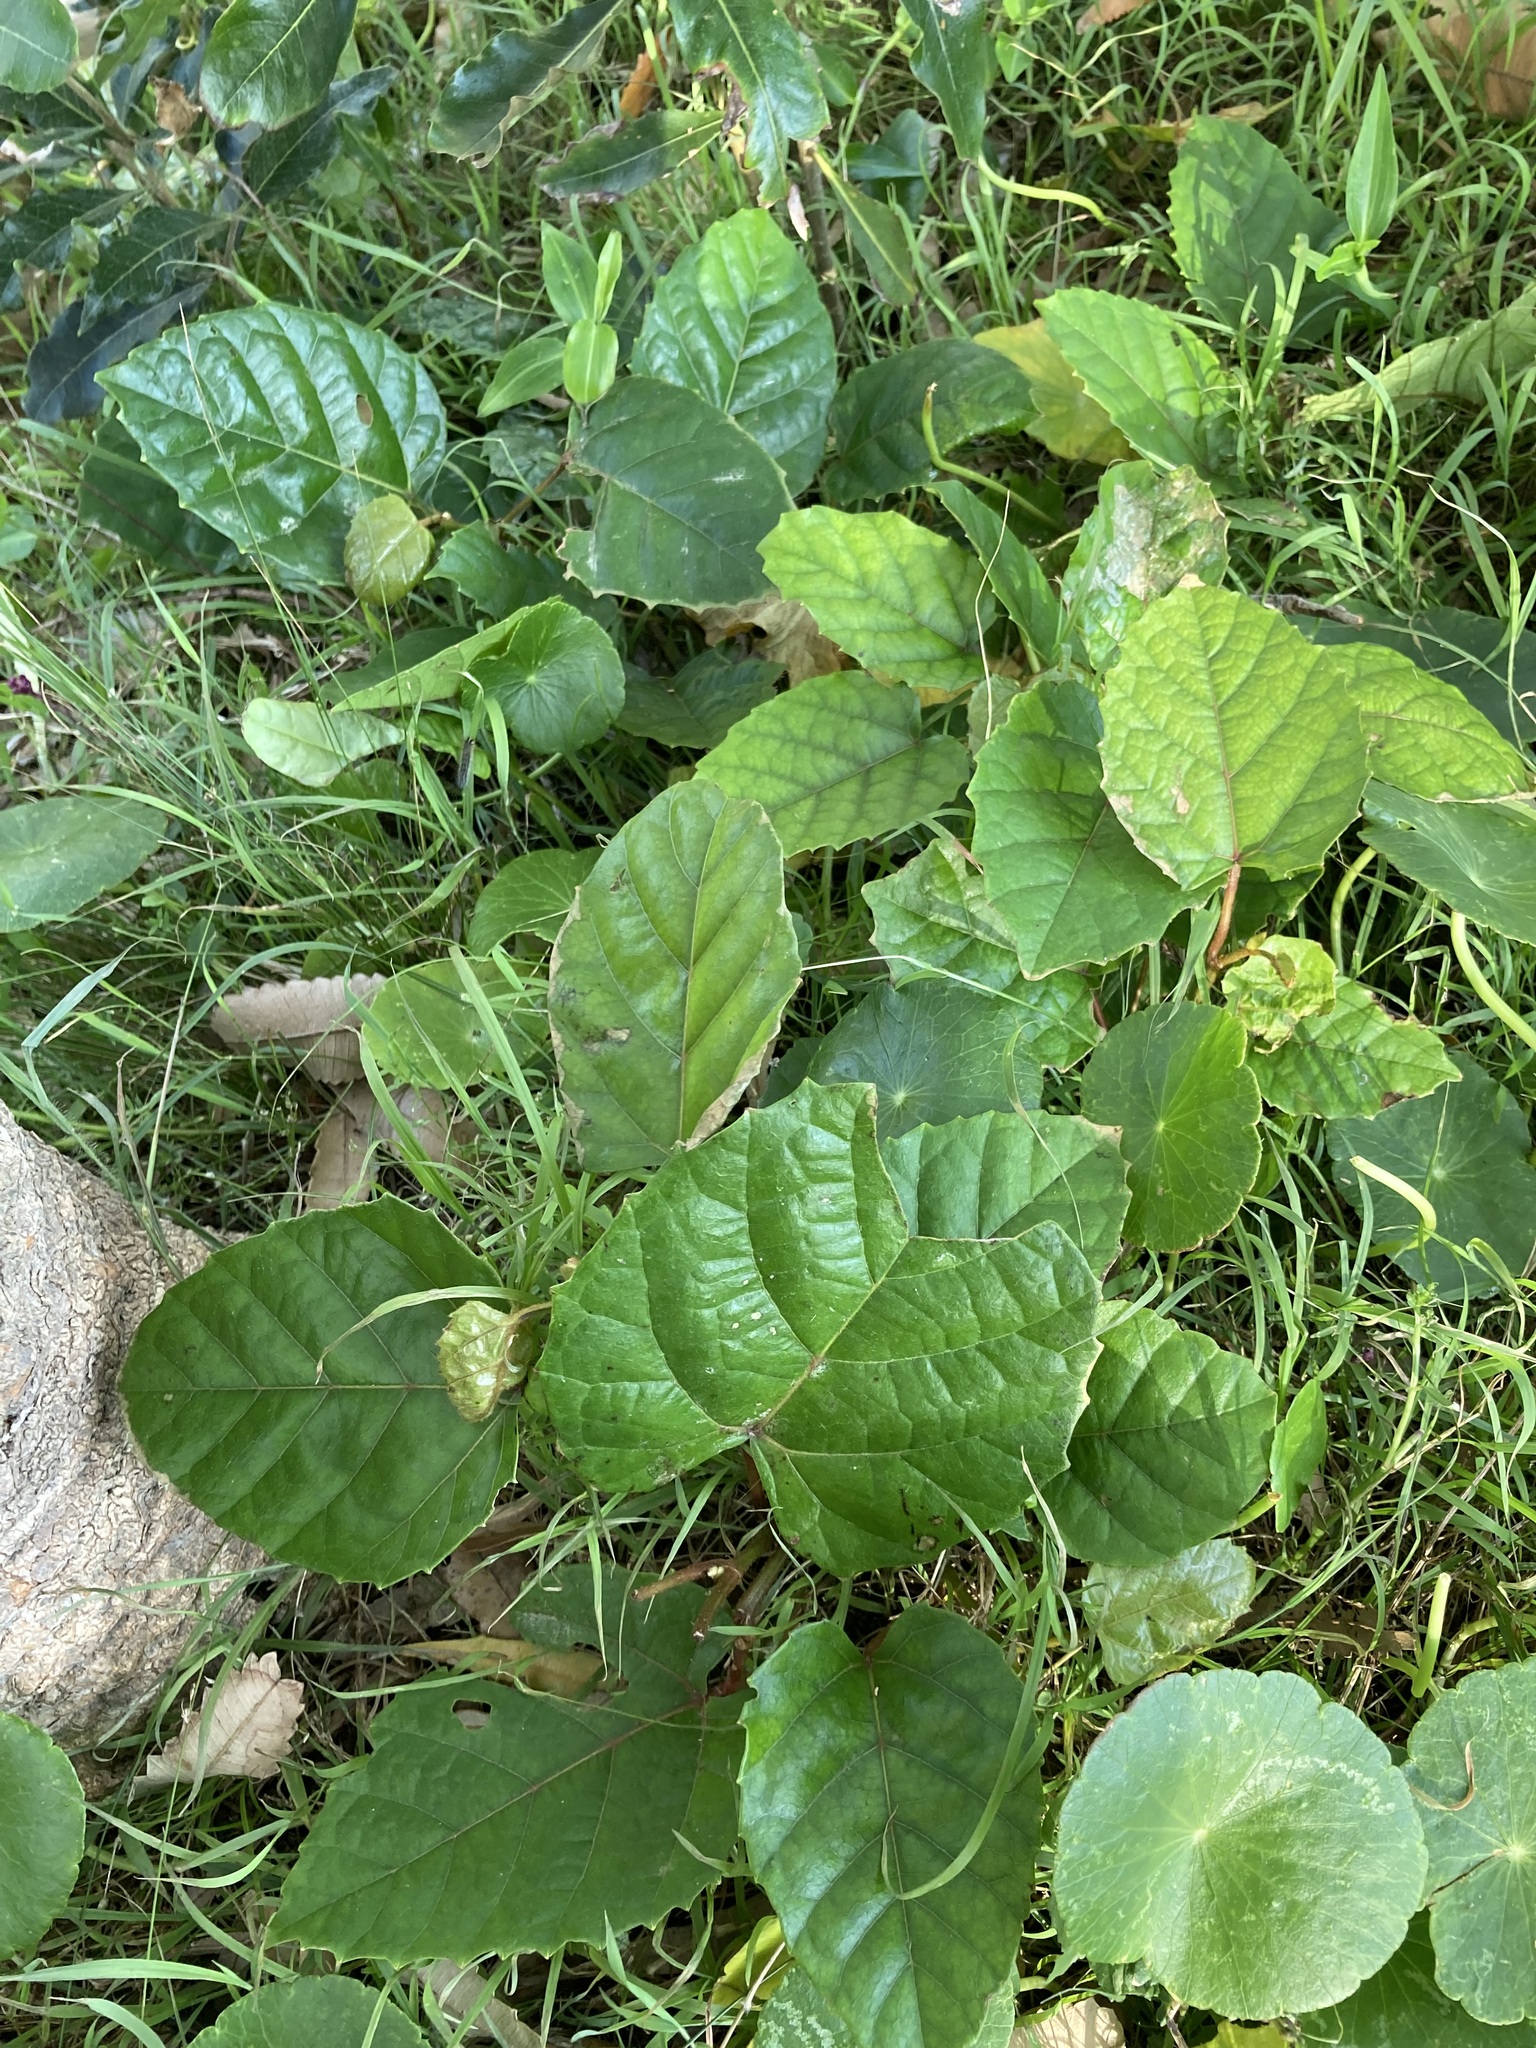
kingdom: Plantae
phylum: Tracheophyta
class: Magnoliopsida
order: Vitales
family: Vitaceae
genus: Cissus
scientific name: Cissus antarctica
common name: Kangaroo vine
